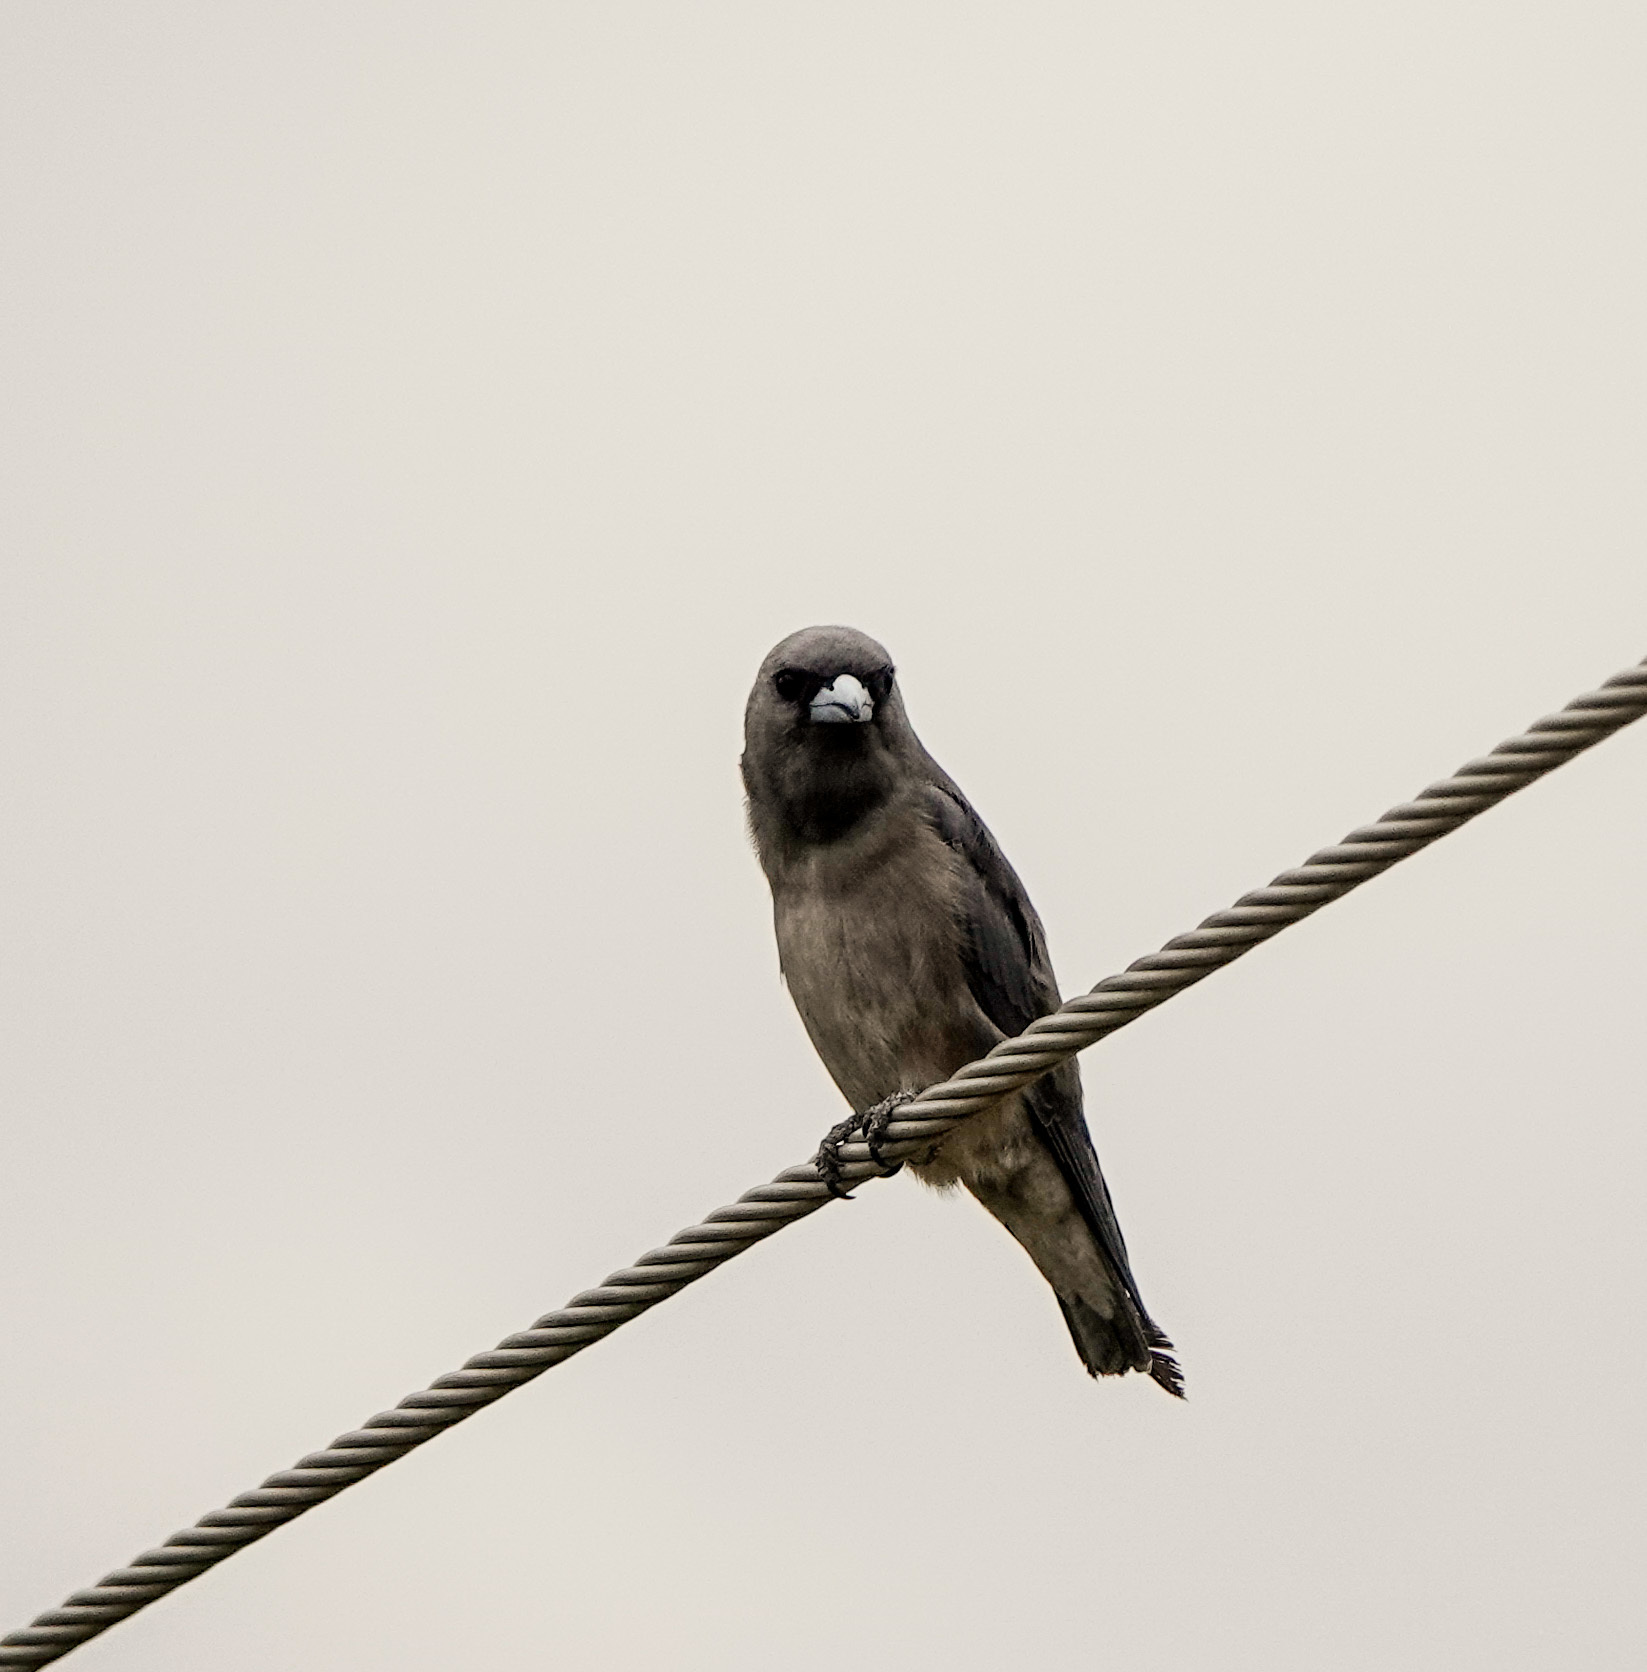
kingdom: Animalia
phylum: Chordata
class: Aves
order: Passeriformes
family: Artamidae
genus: Artamus
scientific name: Artamus fuscus
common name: Ashy woodswallow
